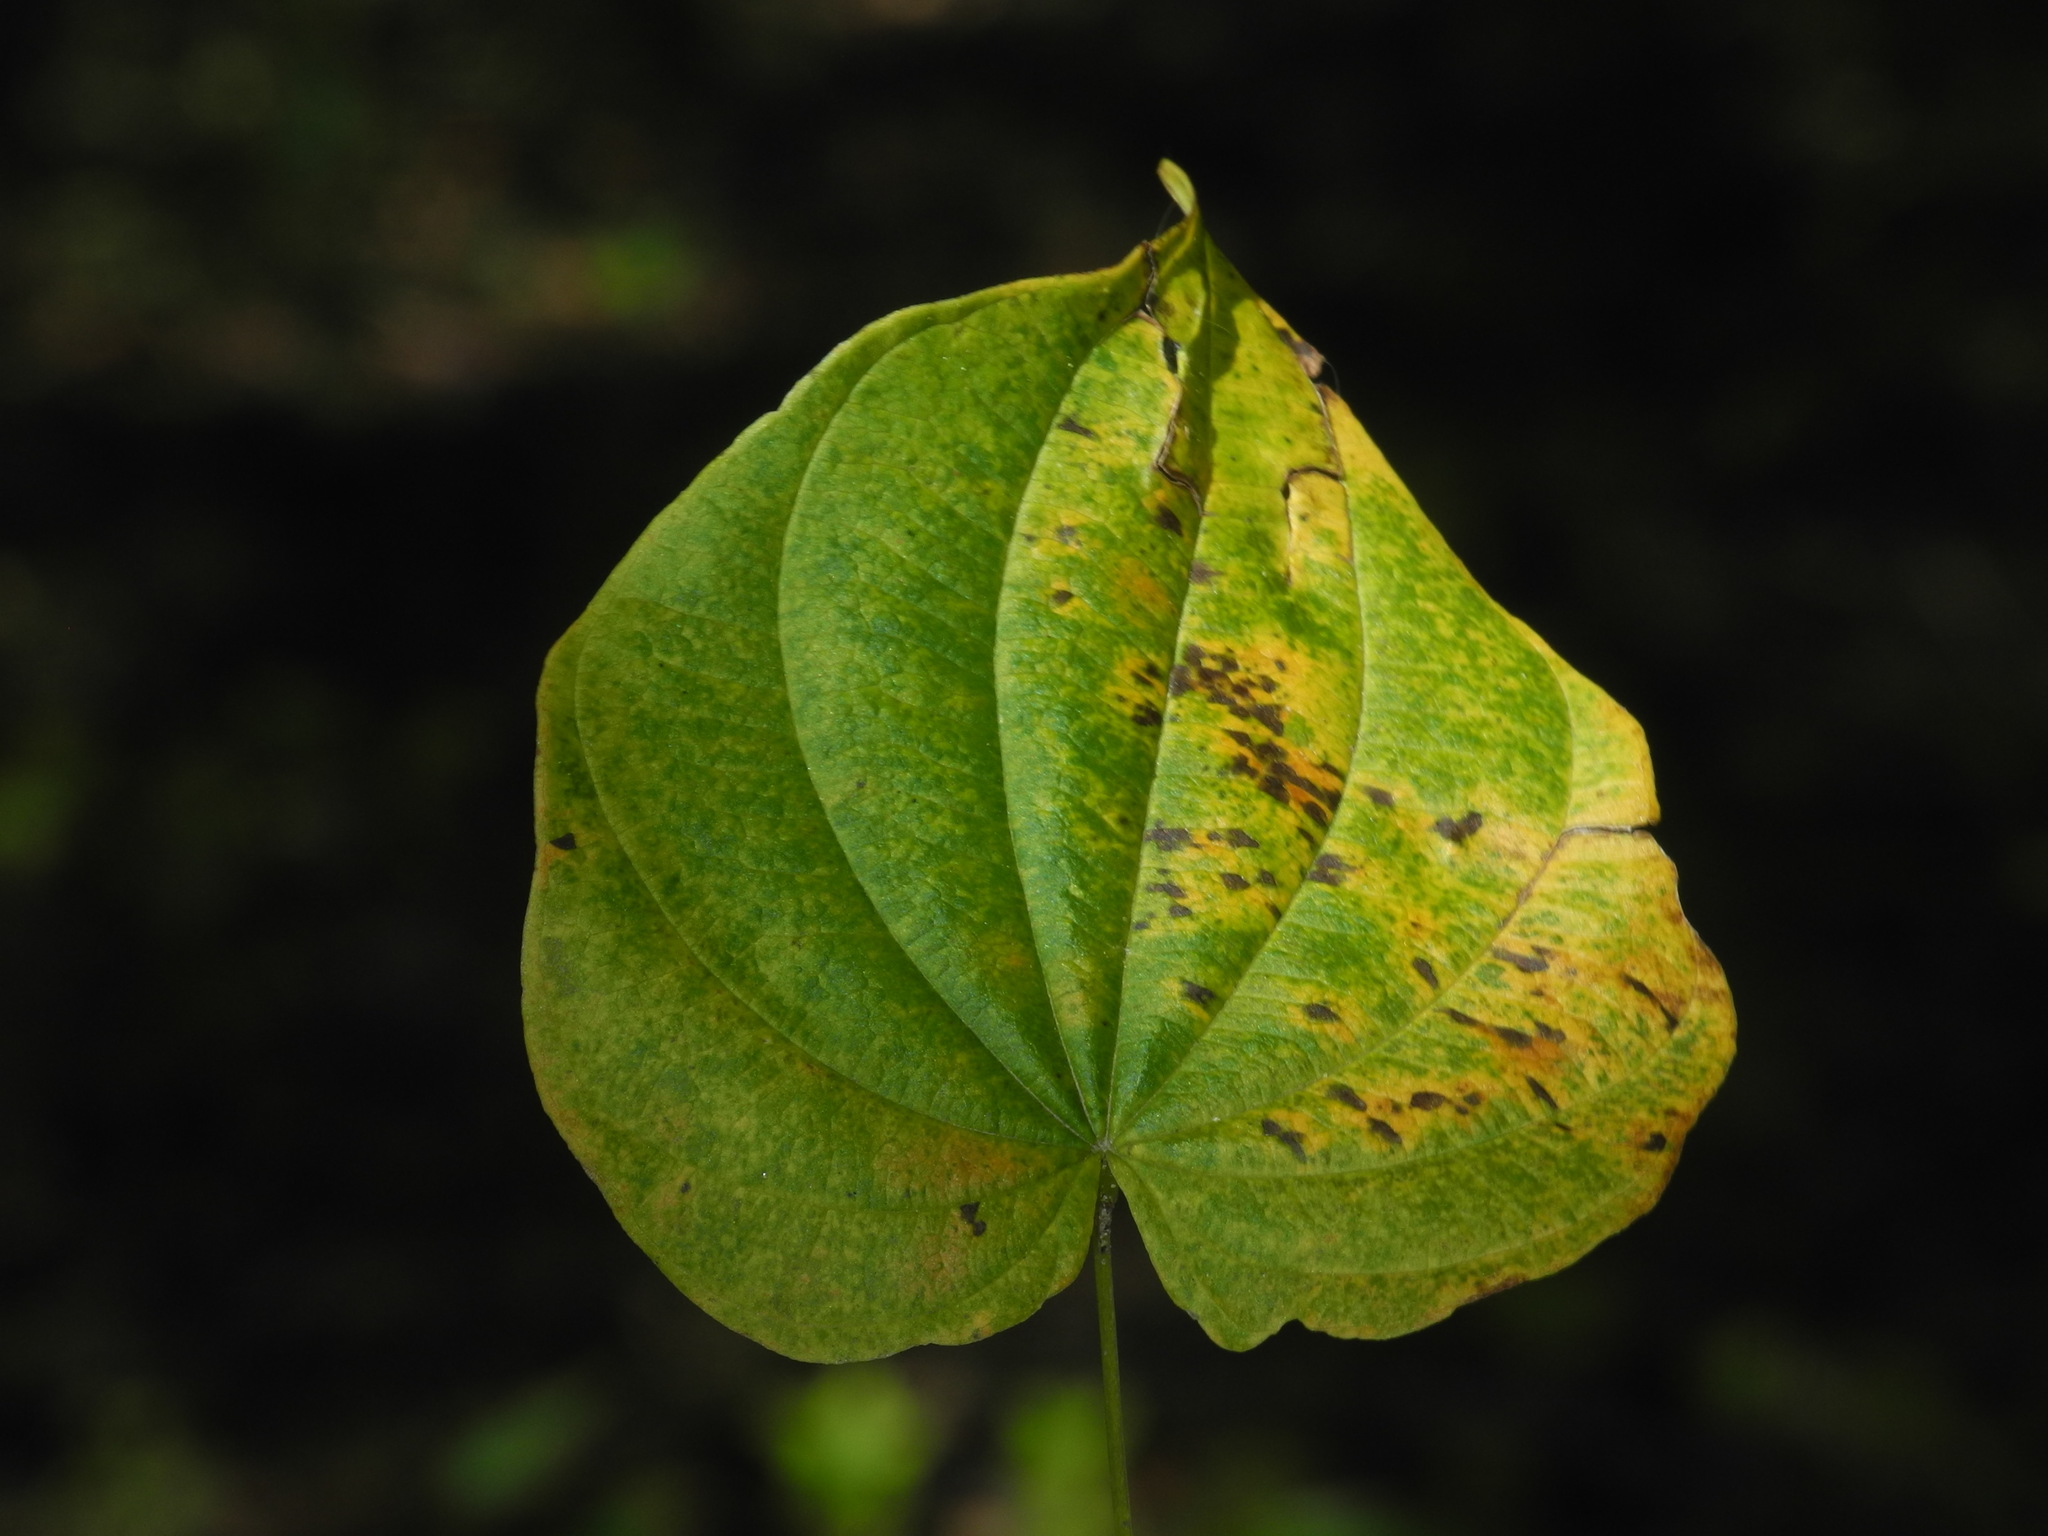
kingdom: Plantae
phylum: Tracheophyta
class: Liliopsida
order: Dioscoreales
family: Dioscoreaceae
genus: Dioscorea
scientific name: Dioscorea villosa
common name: Wild yam
